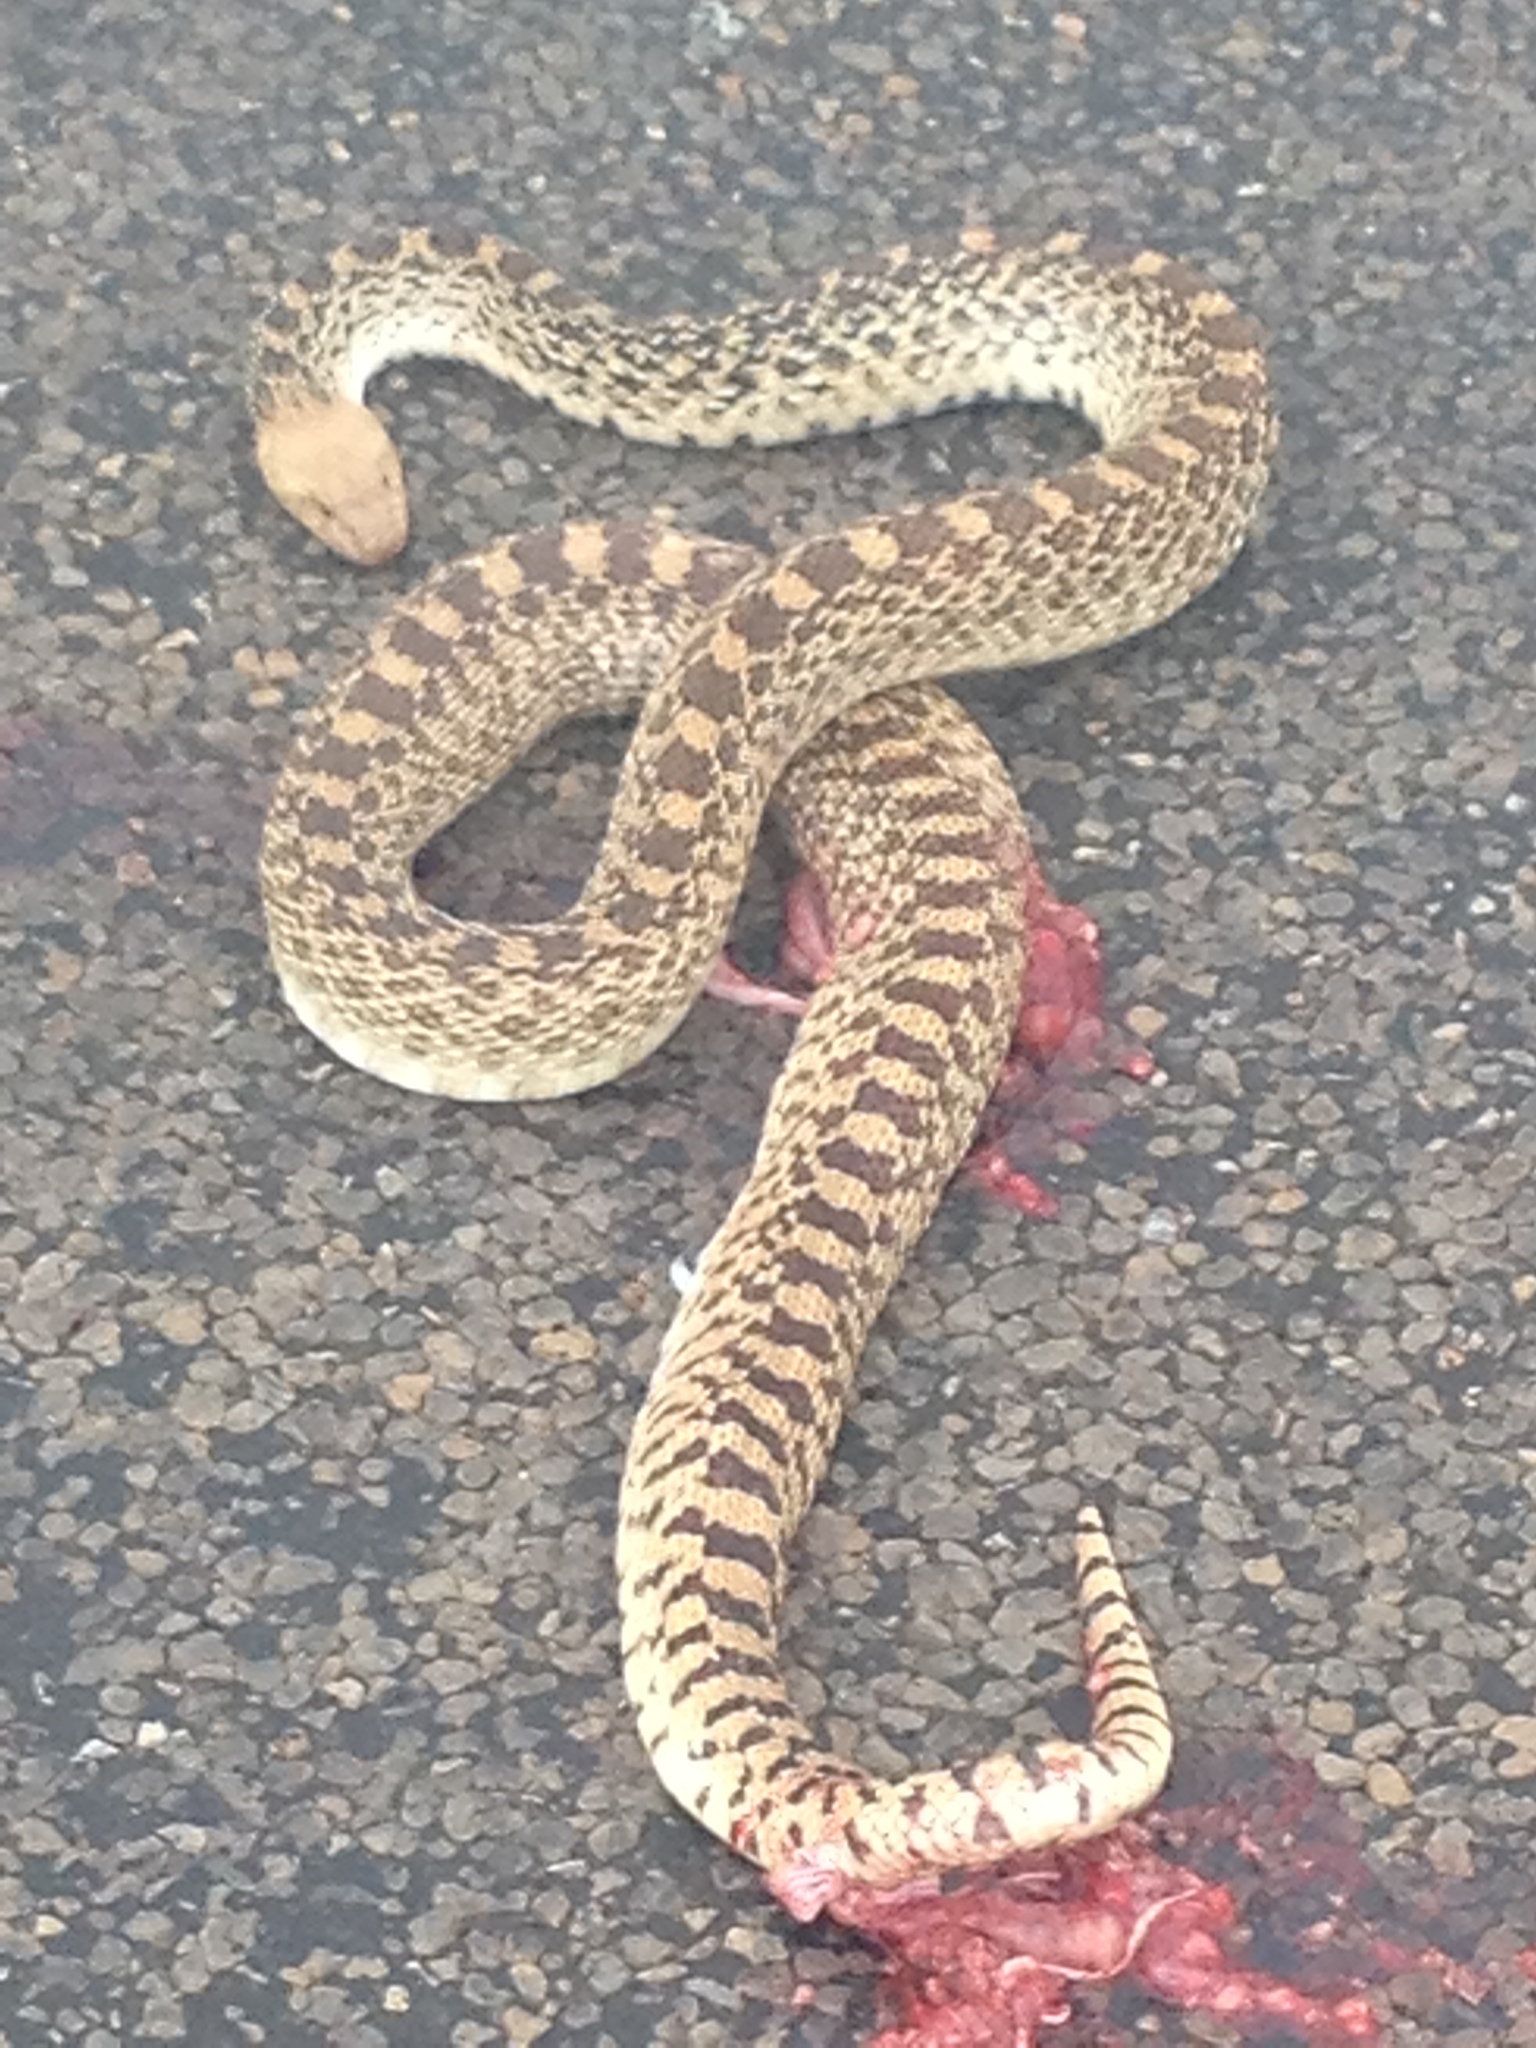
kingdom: Animalia
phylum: Chordata
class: Squamata
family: Colubridae
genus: Pituophis
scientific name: Pituophis catenifer
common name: Gopher snake
